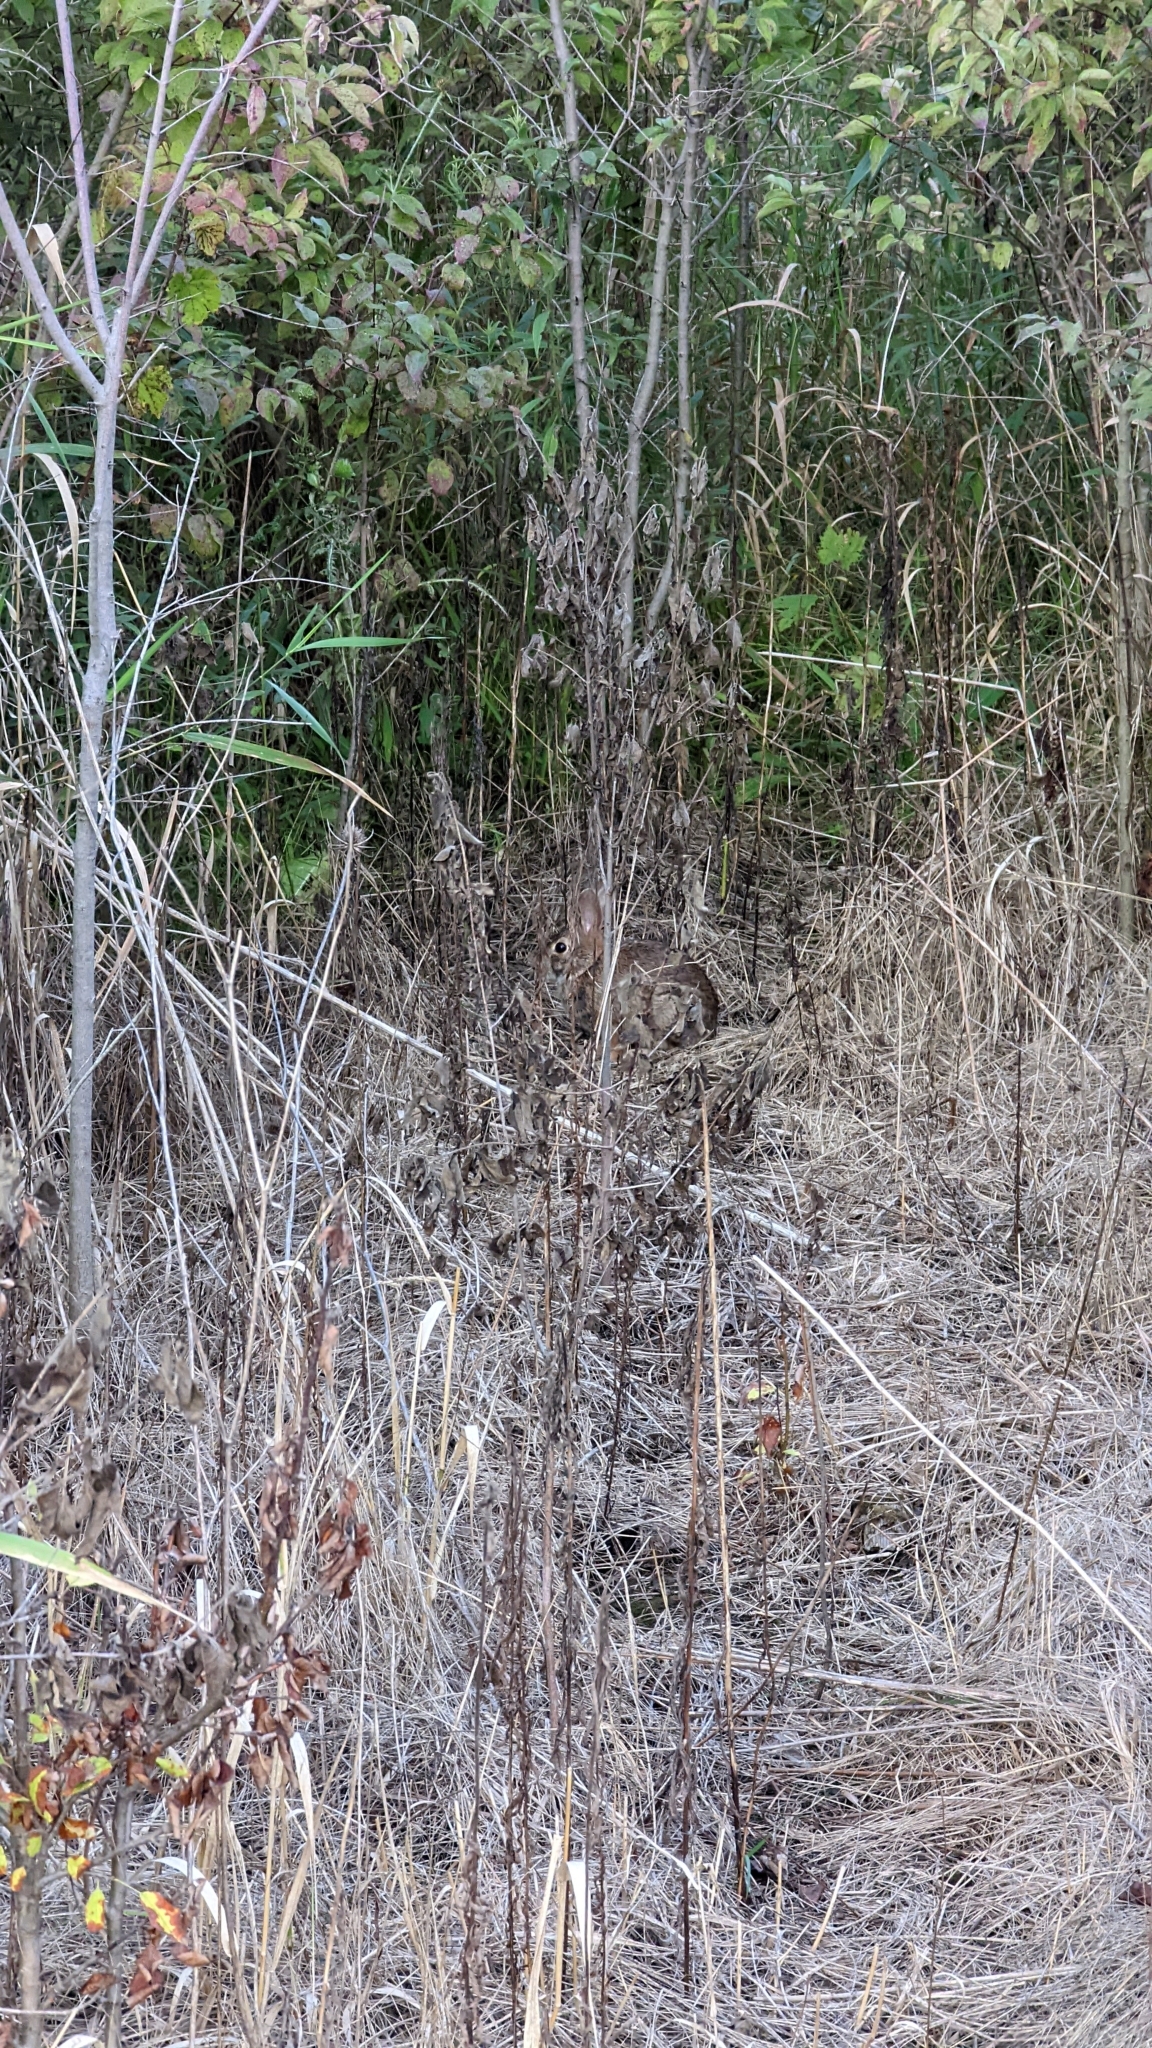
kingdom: Animalia
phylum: Chordata
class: Mammalia
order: Lagomorpha
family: Leporidae
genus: Sylvilagus
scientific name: Sylvilagus floridanus
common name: Eastern cottontail
